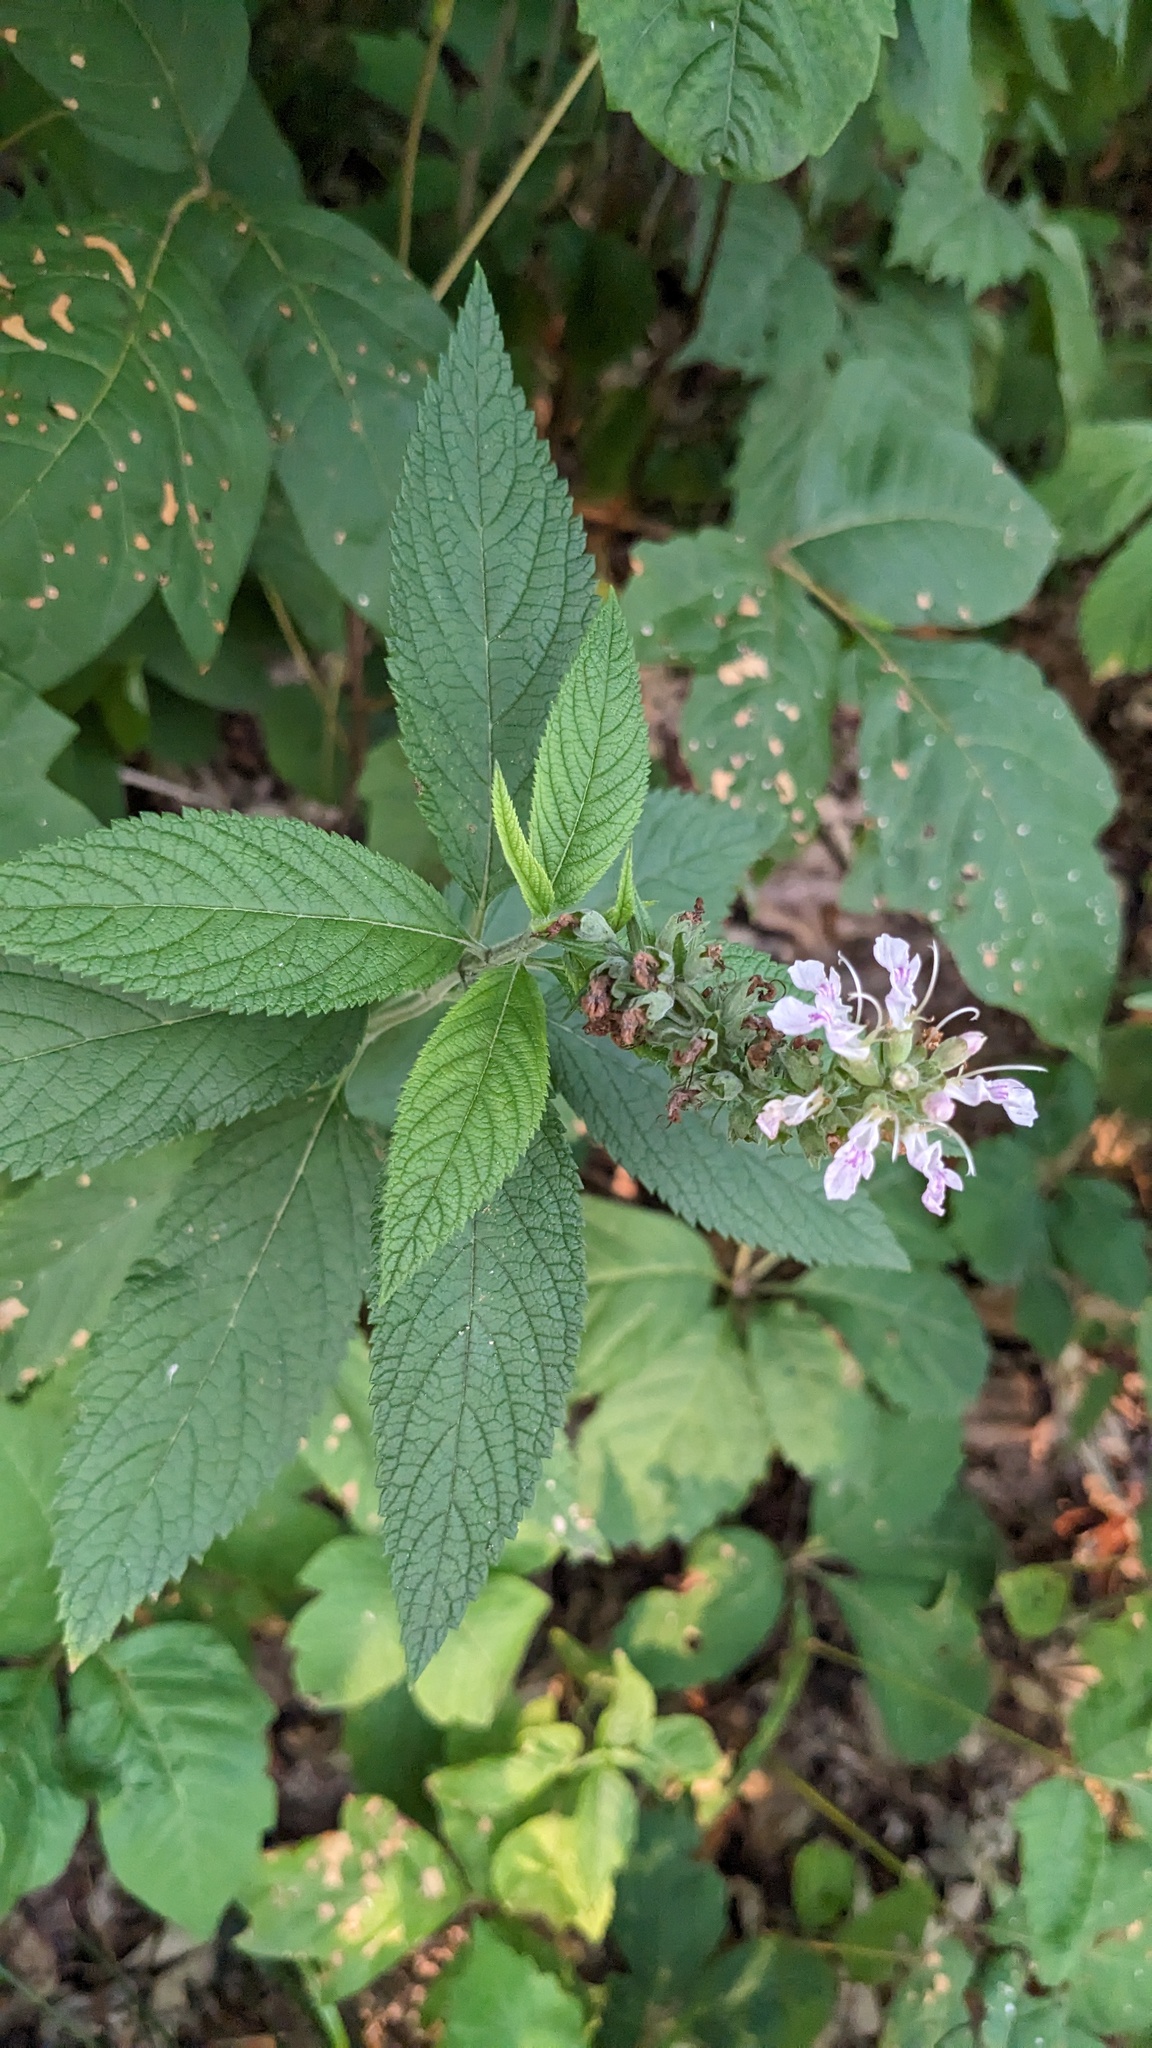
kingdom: Plantae
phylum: Tracheophyta
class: Magnoliopsida
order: Lamiales
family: Lamiaceae
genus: Teucrium
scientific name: Teucrium canadense
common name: American germander
